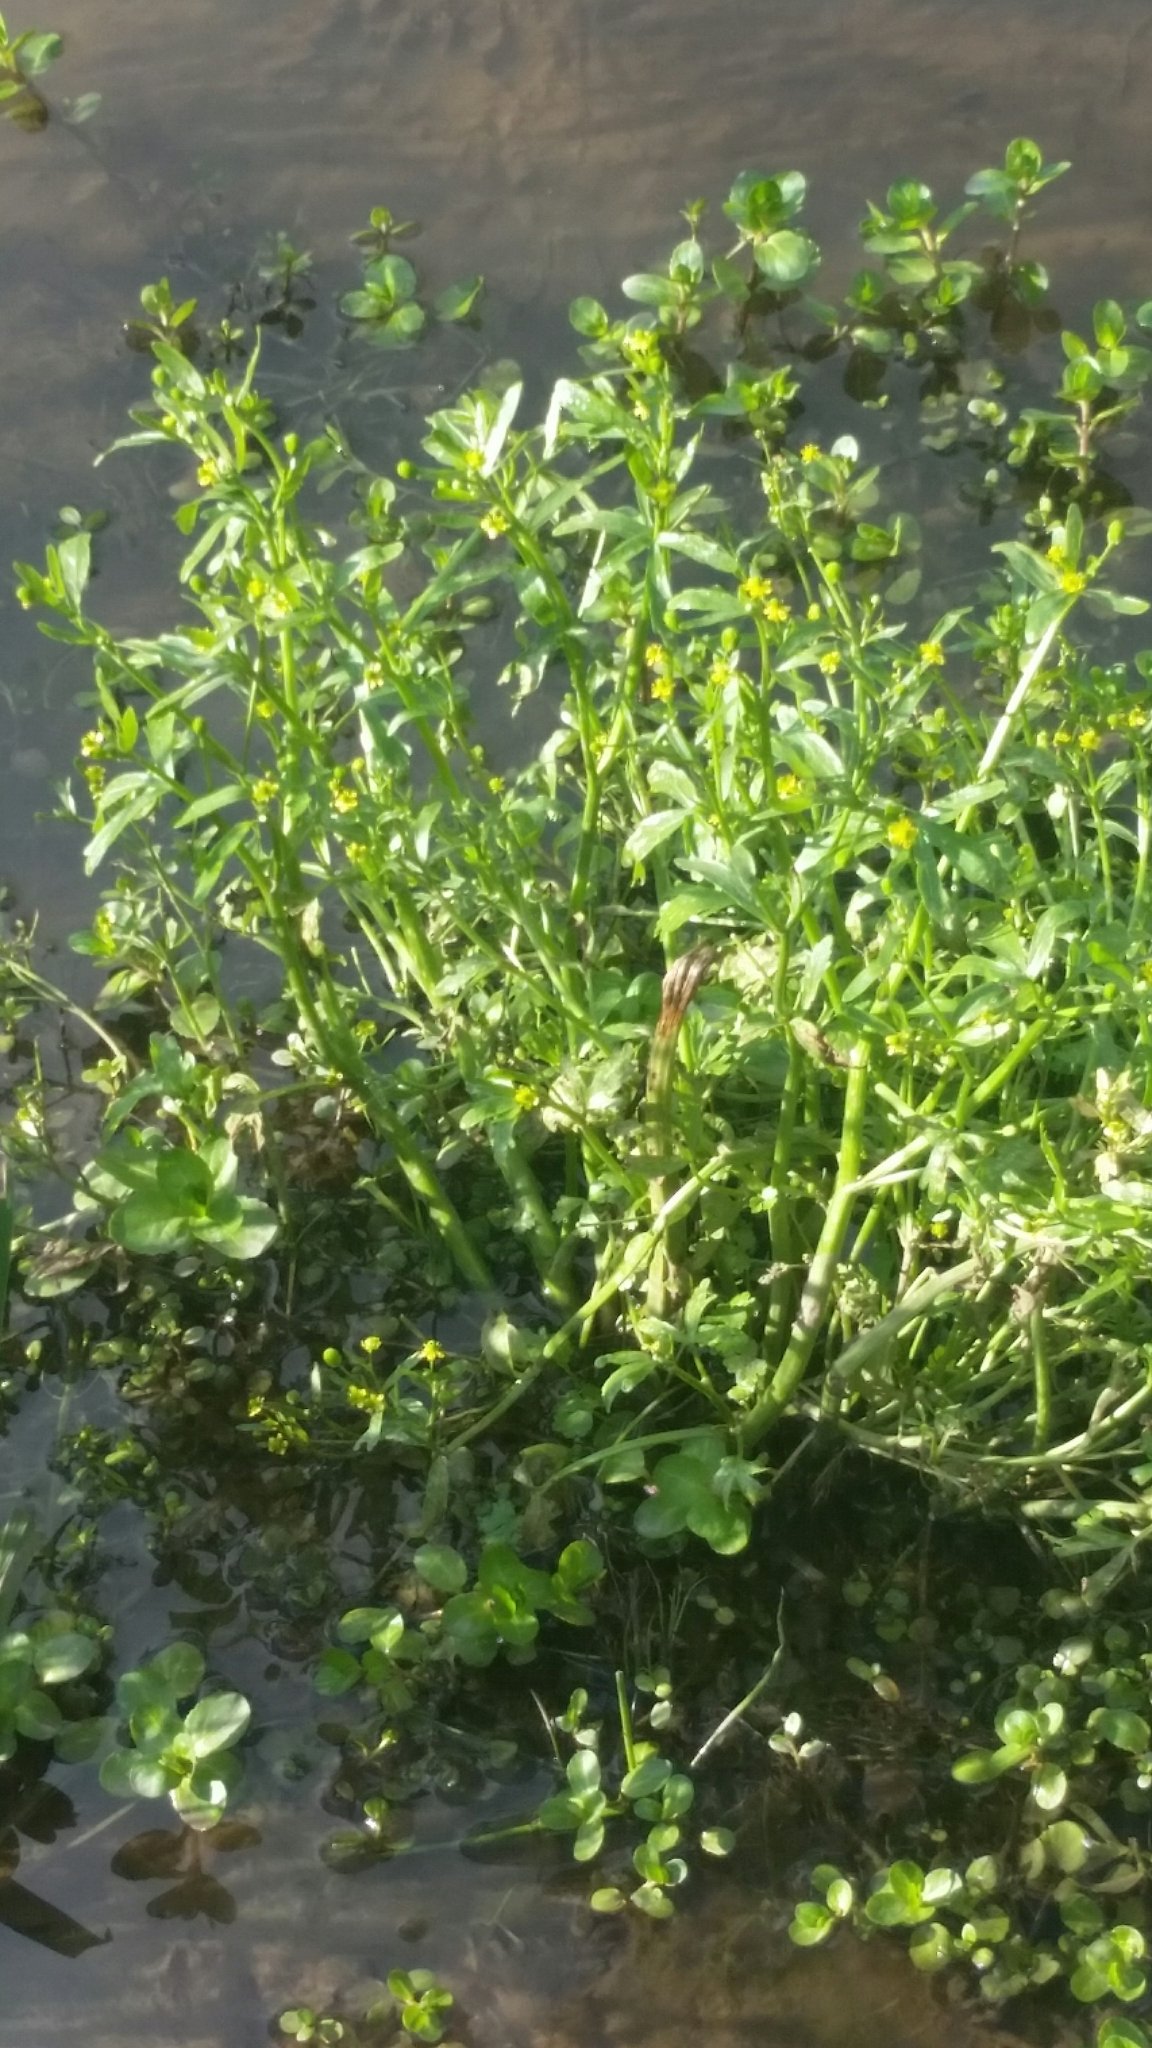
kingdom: Plantae
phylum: Tracheophyta
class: Magnoliopsida
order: Ranunculales
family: Ranunculaceae
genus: Ranunculus
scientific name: Ranunculus sceleratus
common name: Celery-leaved buttercup
